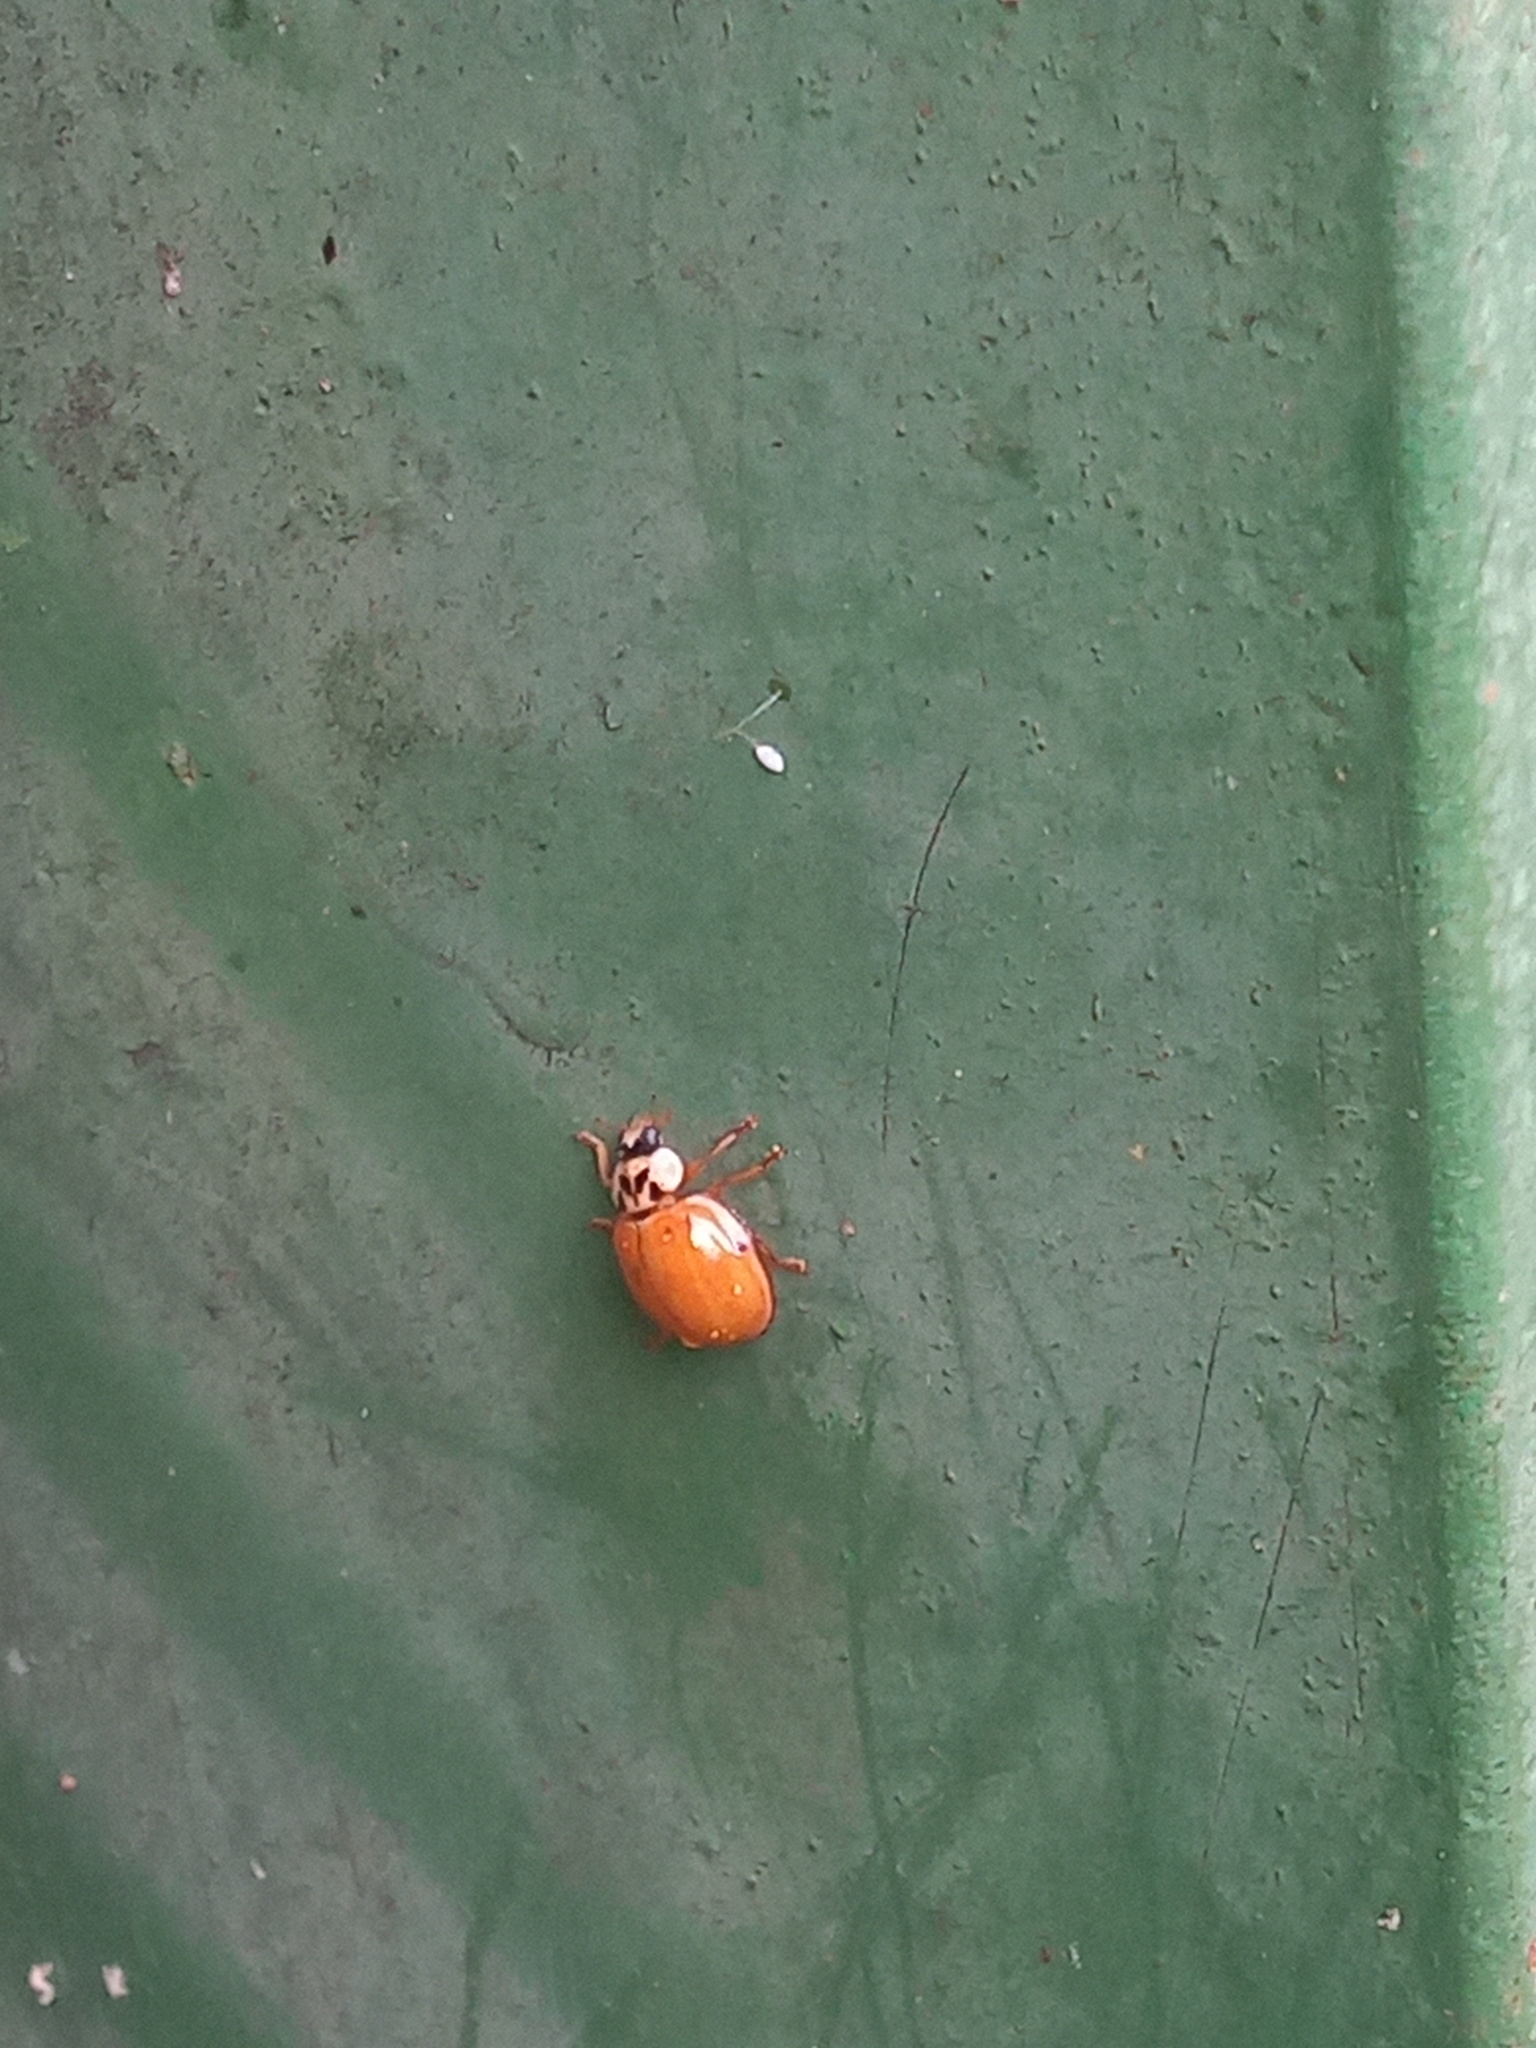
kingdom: Animalia
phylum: Arthropoda
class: Insecta
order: Coleoptera
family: Coccinellidae
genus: Harmonia
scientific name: Harmonia axyridis
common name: Harlequin ladybird
